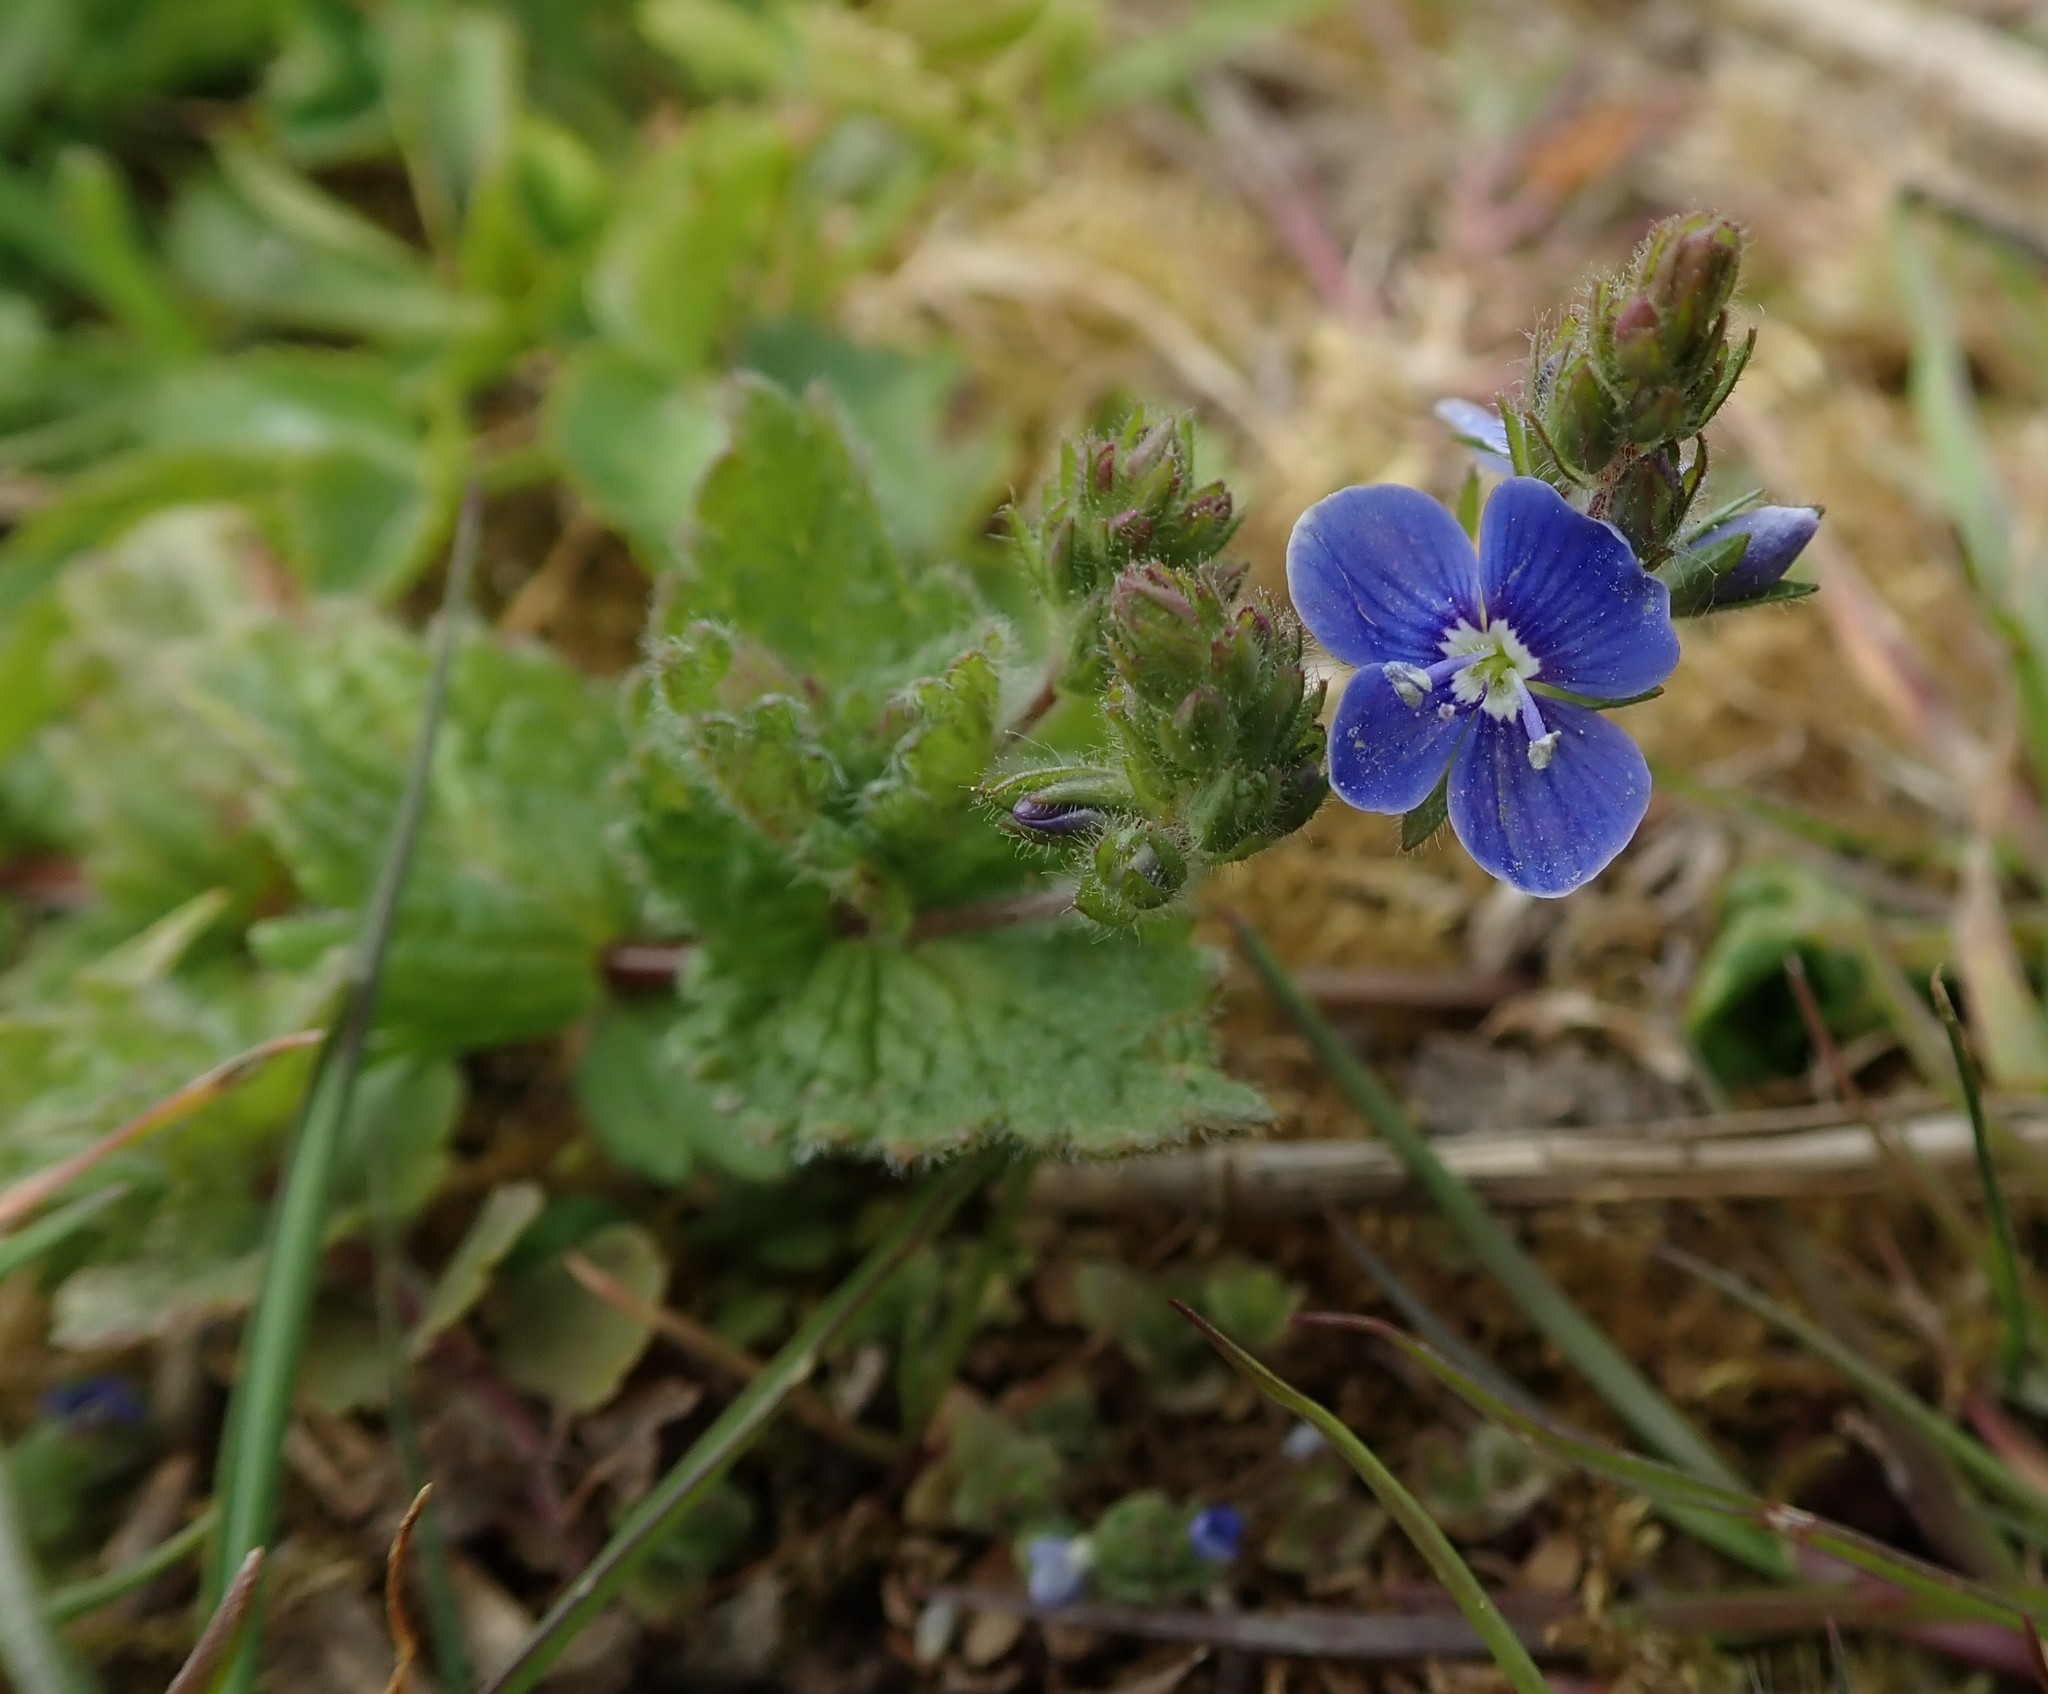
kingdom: Plantae
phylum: Tracheophyta
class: Magnoliopsida
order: Lamiales
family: Plantaginaceae
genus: Veronica
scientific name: Veronica chamaedrys
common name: Germander speedwell
